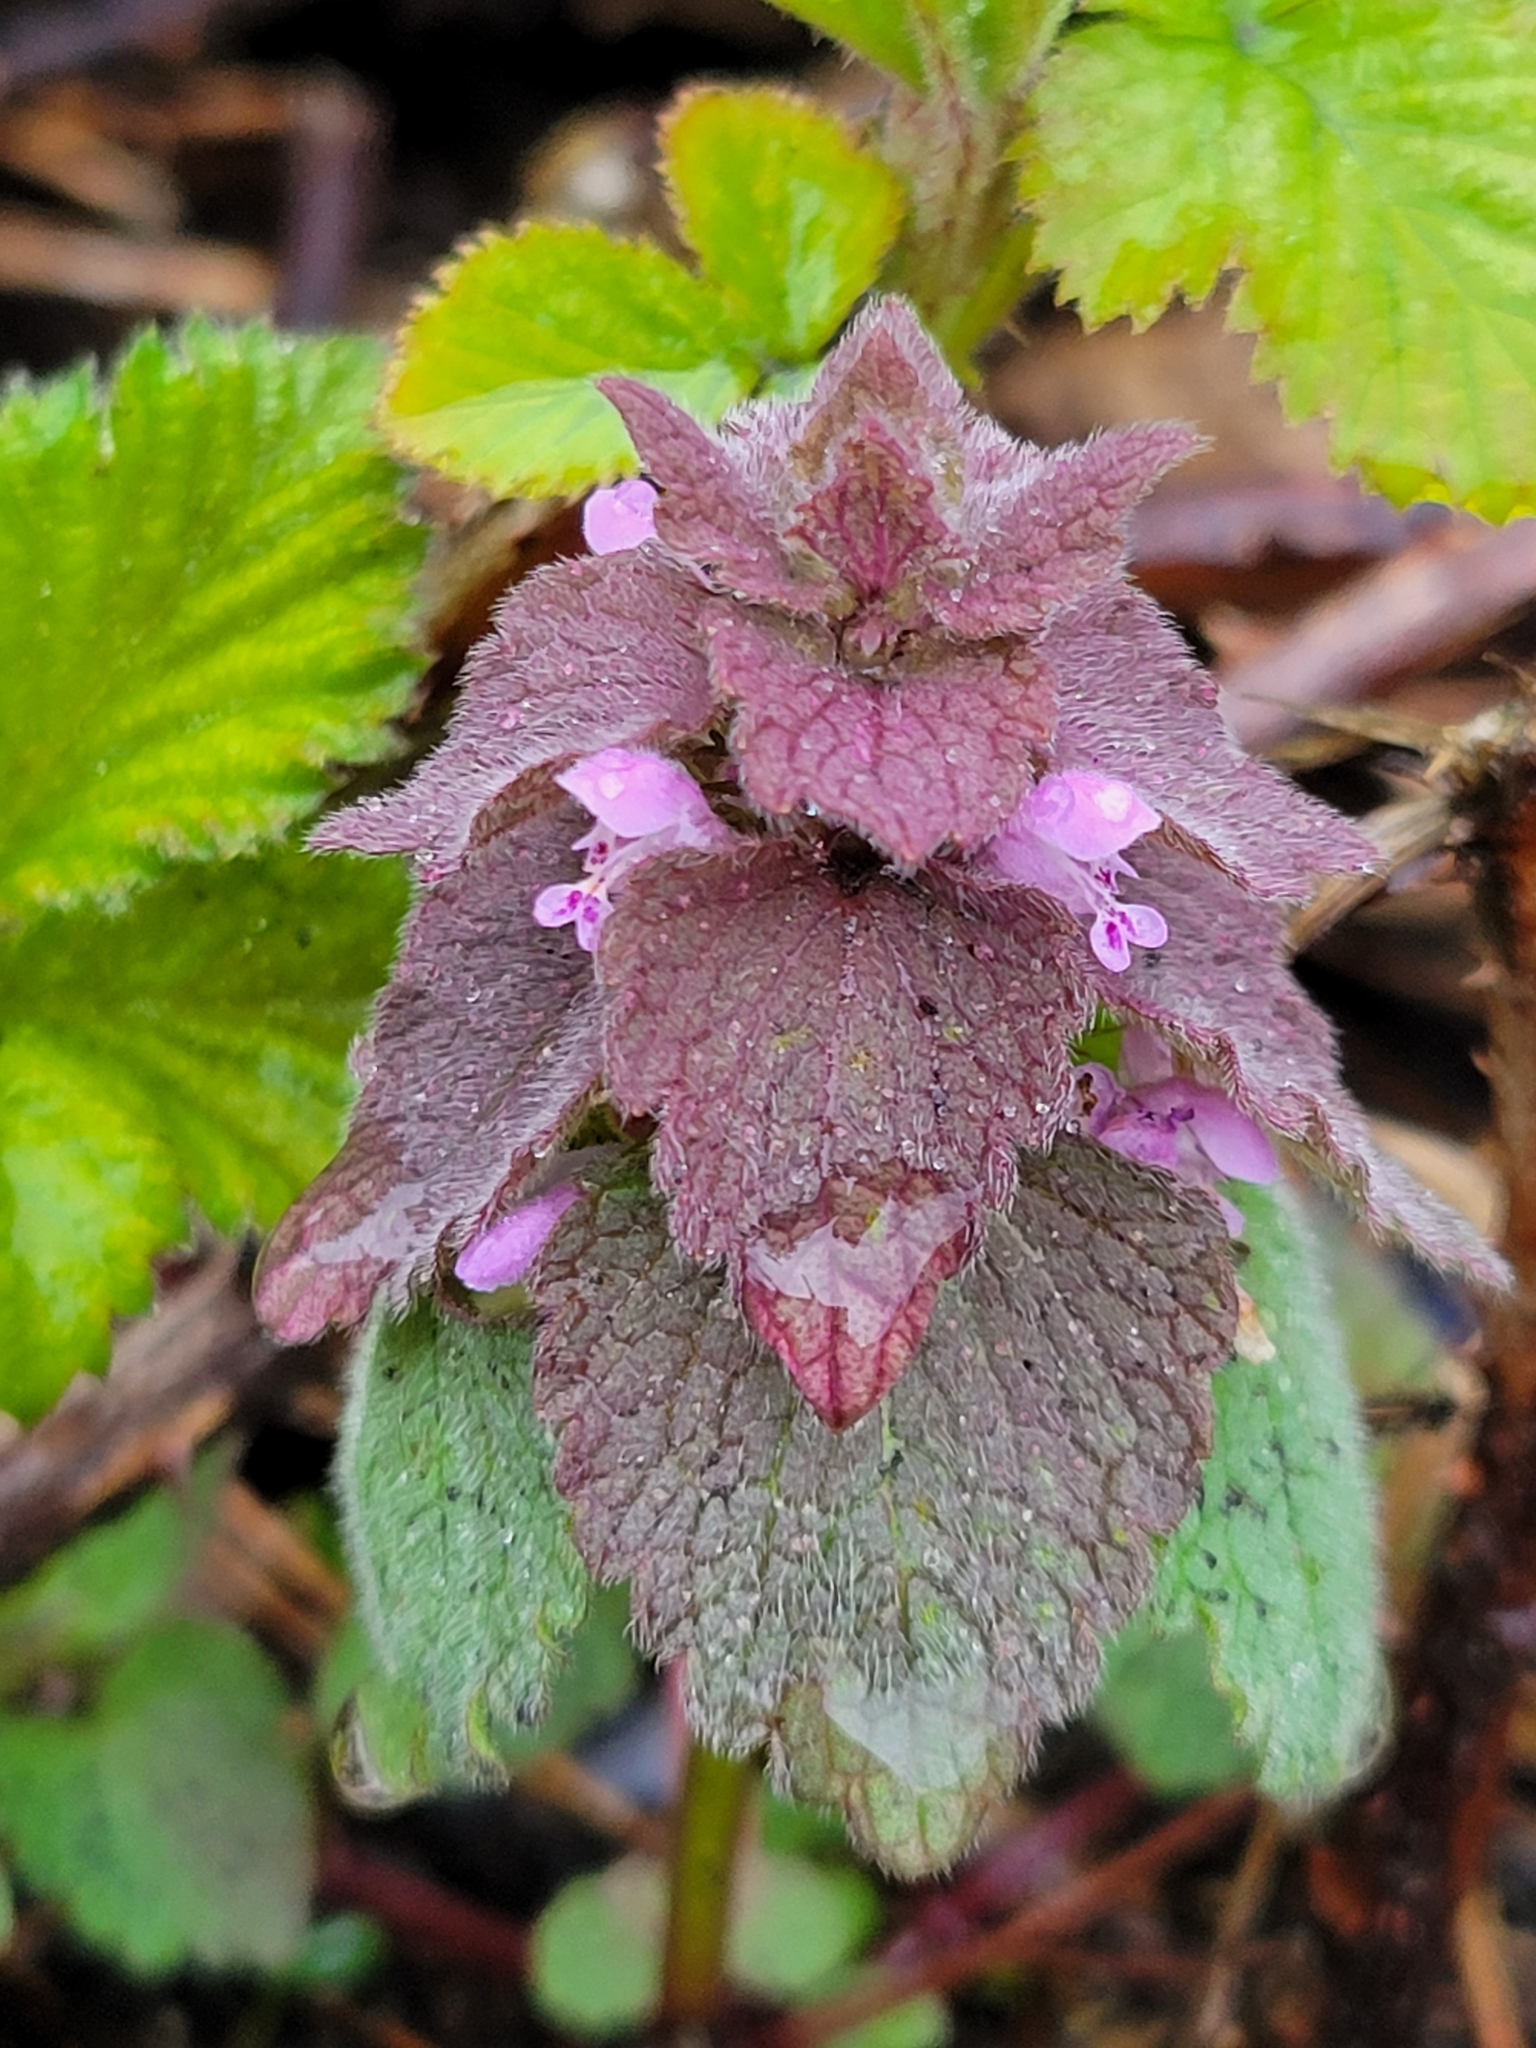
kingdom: Plantae
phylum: Tracheophyta
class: Magnoliopsida
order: Lamiales
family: Lamiaceae
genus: Lamium
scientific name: Lamium purpureum
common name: Red dead-nettle
